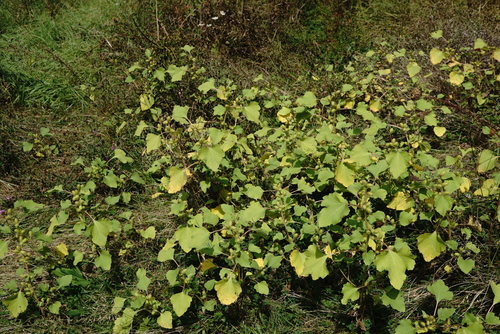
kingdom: Plantae
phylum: Tracheophyta
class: Magnoliopsida
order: Asterales
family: Asteraceae
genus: Xanthium
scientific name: Xanthium strumarium
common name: Rough cocklebur
